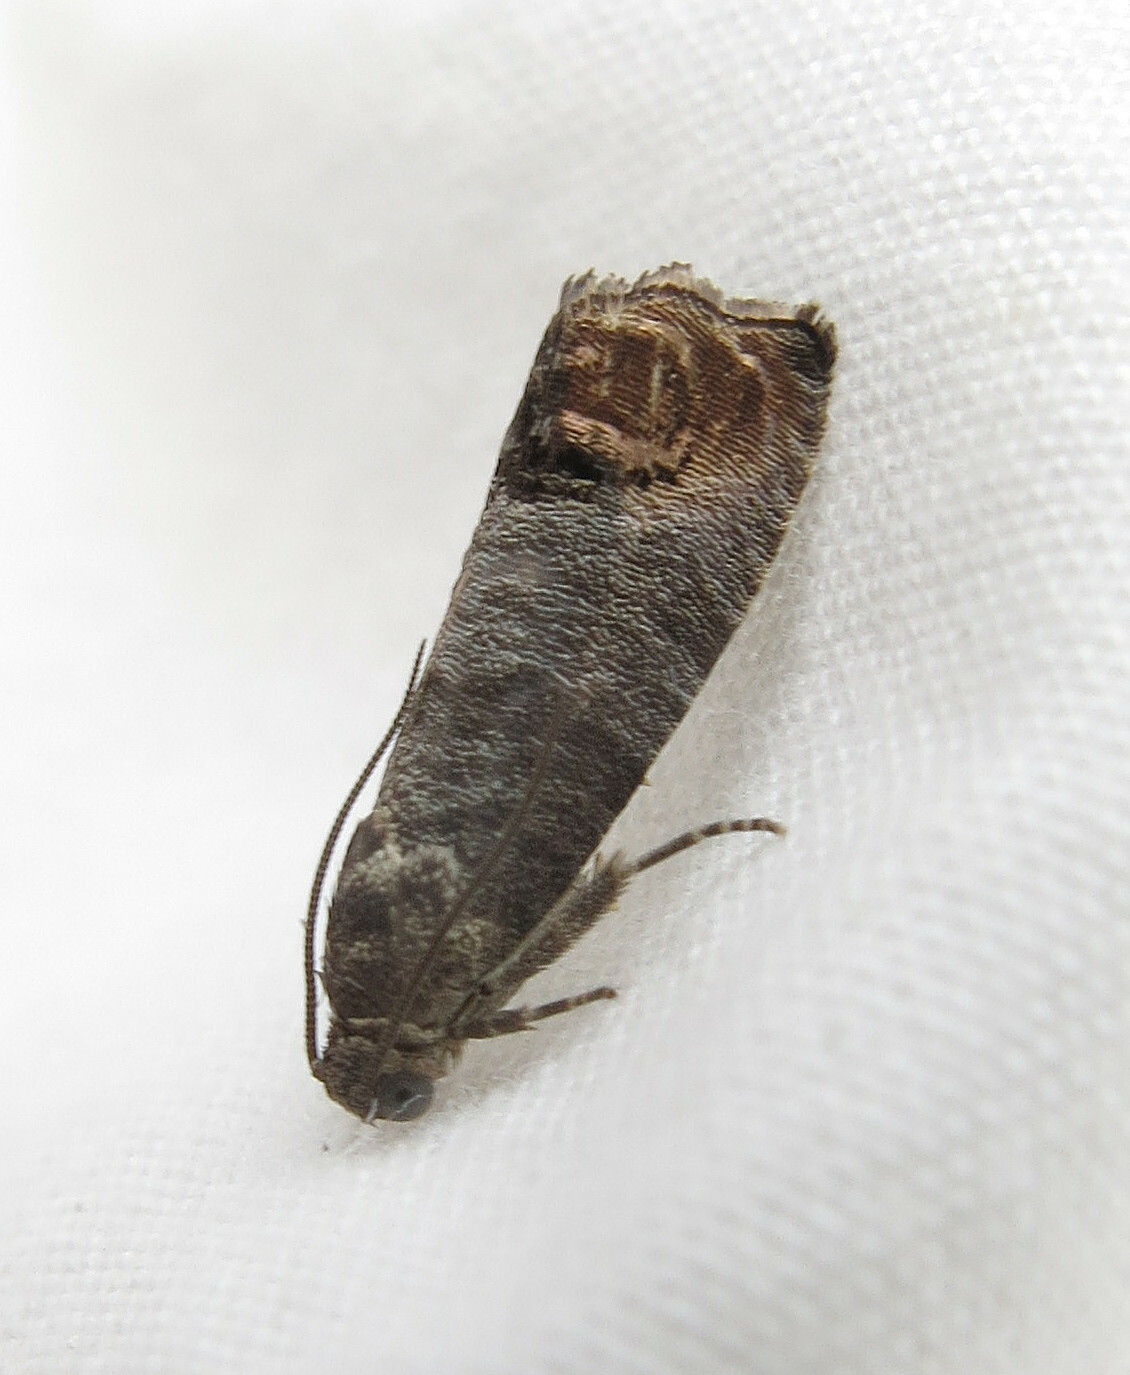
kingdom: Animalia
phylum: Arthropoda
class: Insecta
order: Lepidoptera
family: Tortricidae
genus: Cydia
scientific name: Cydia pomonella
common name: Codling moth
